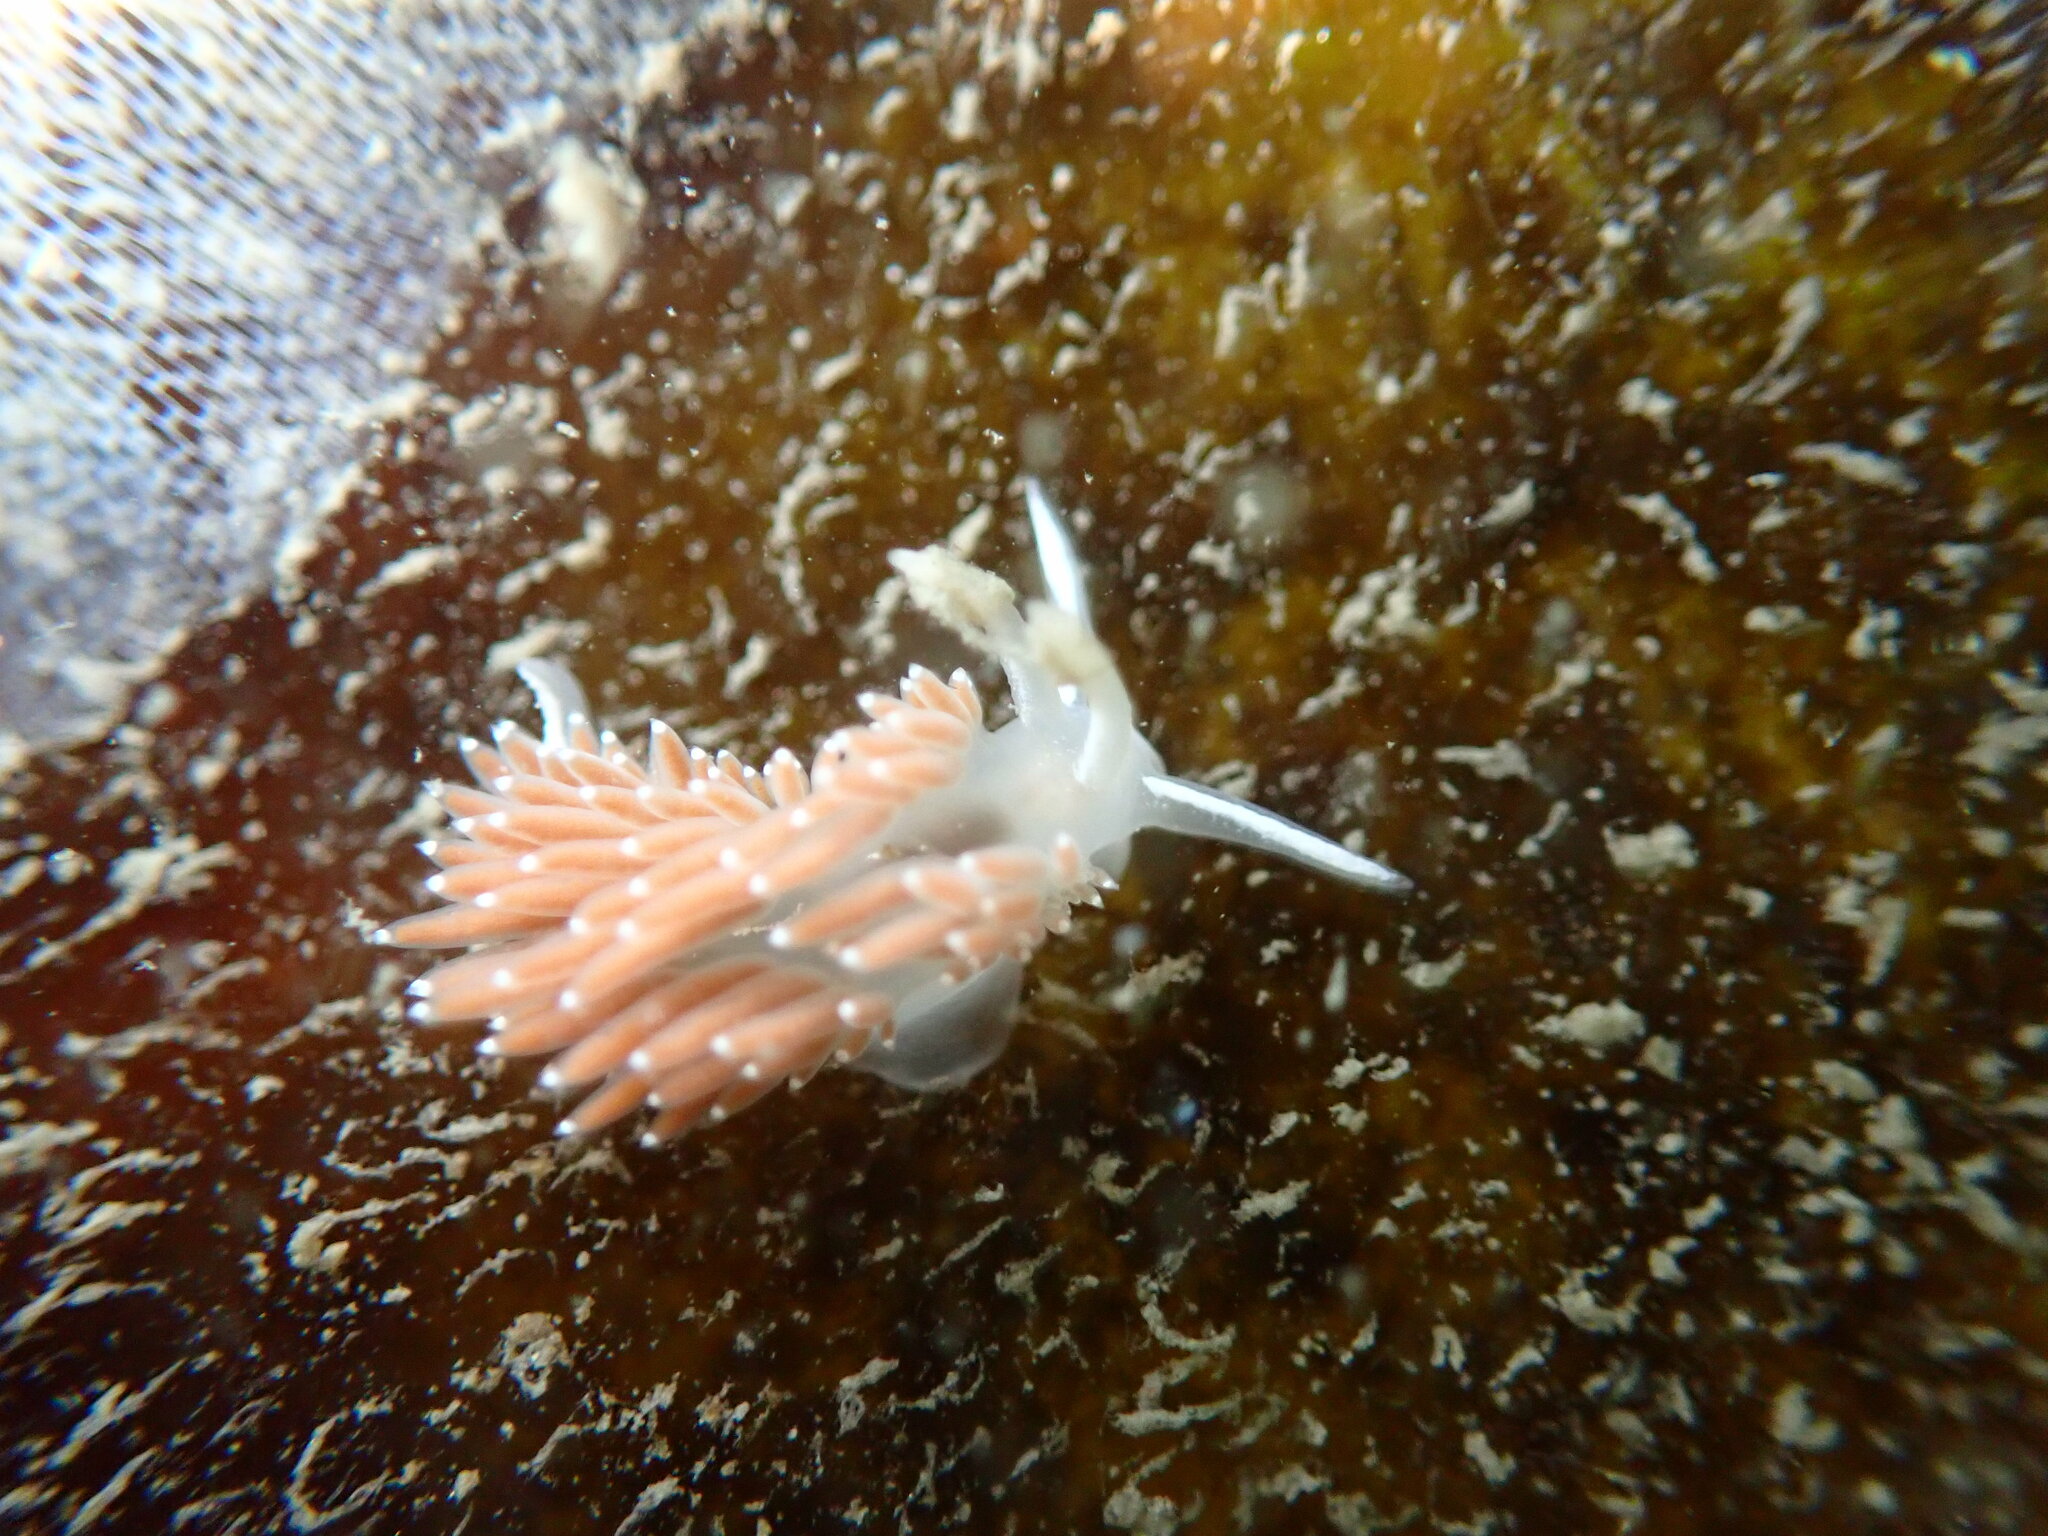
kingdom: Animalia
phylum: Mollusca
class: Gastropoda
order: Nudibranchia
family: Coryphellidae
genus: Coryphella
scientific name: Coryphella verrucosa
